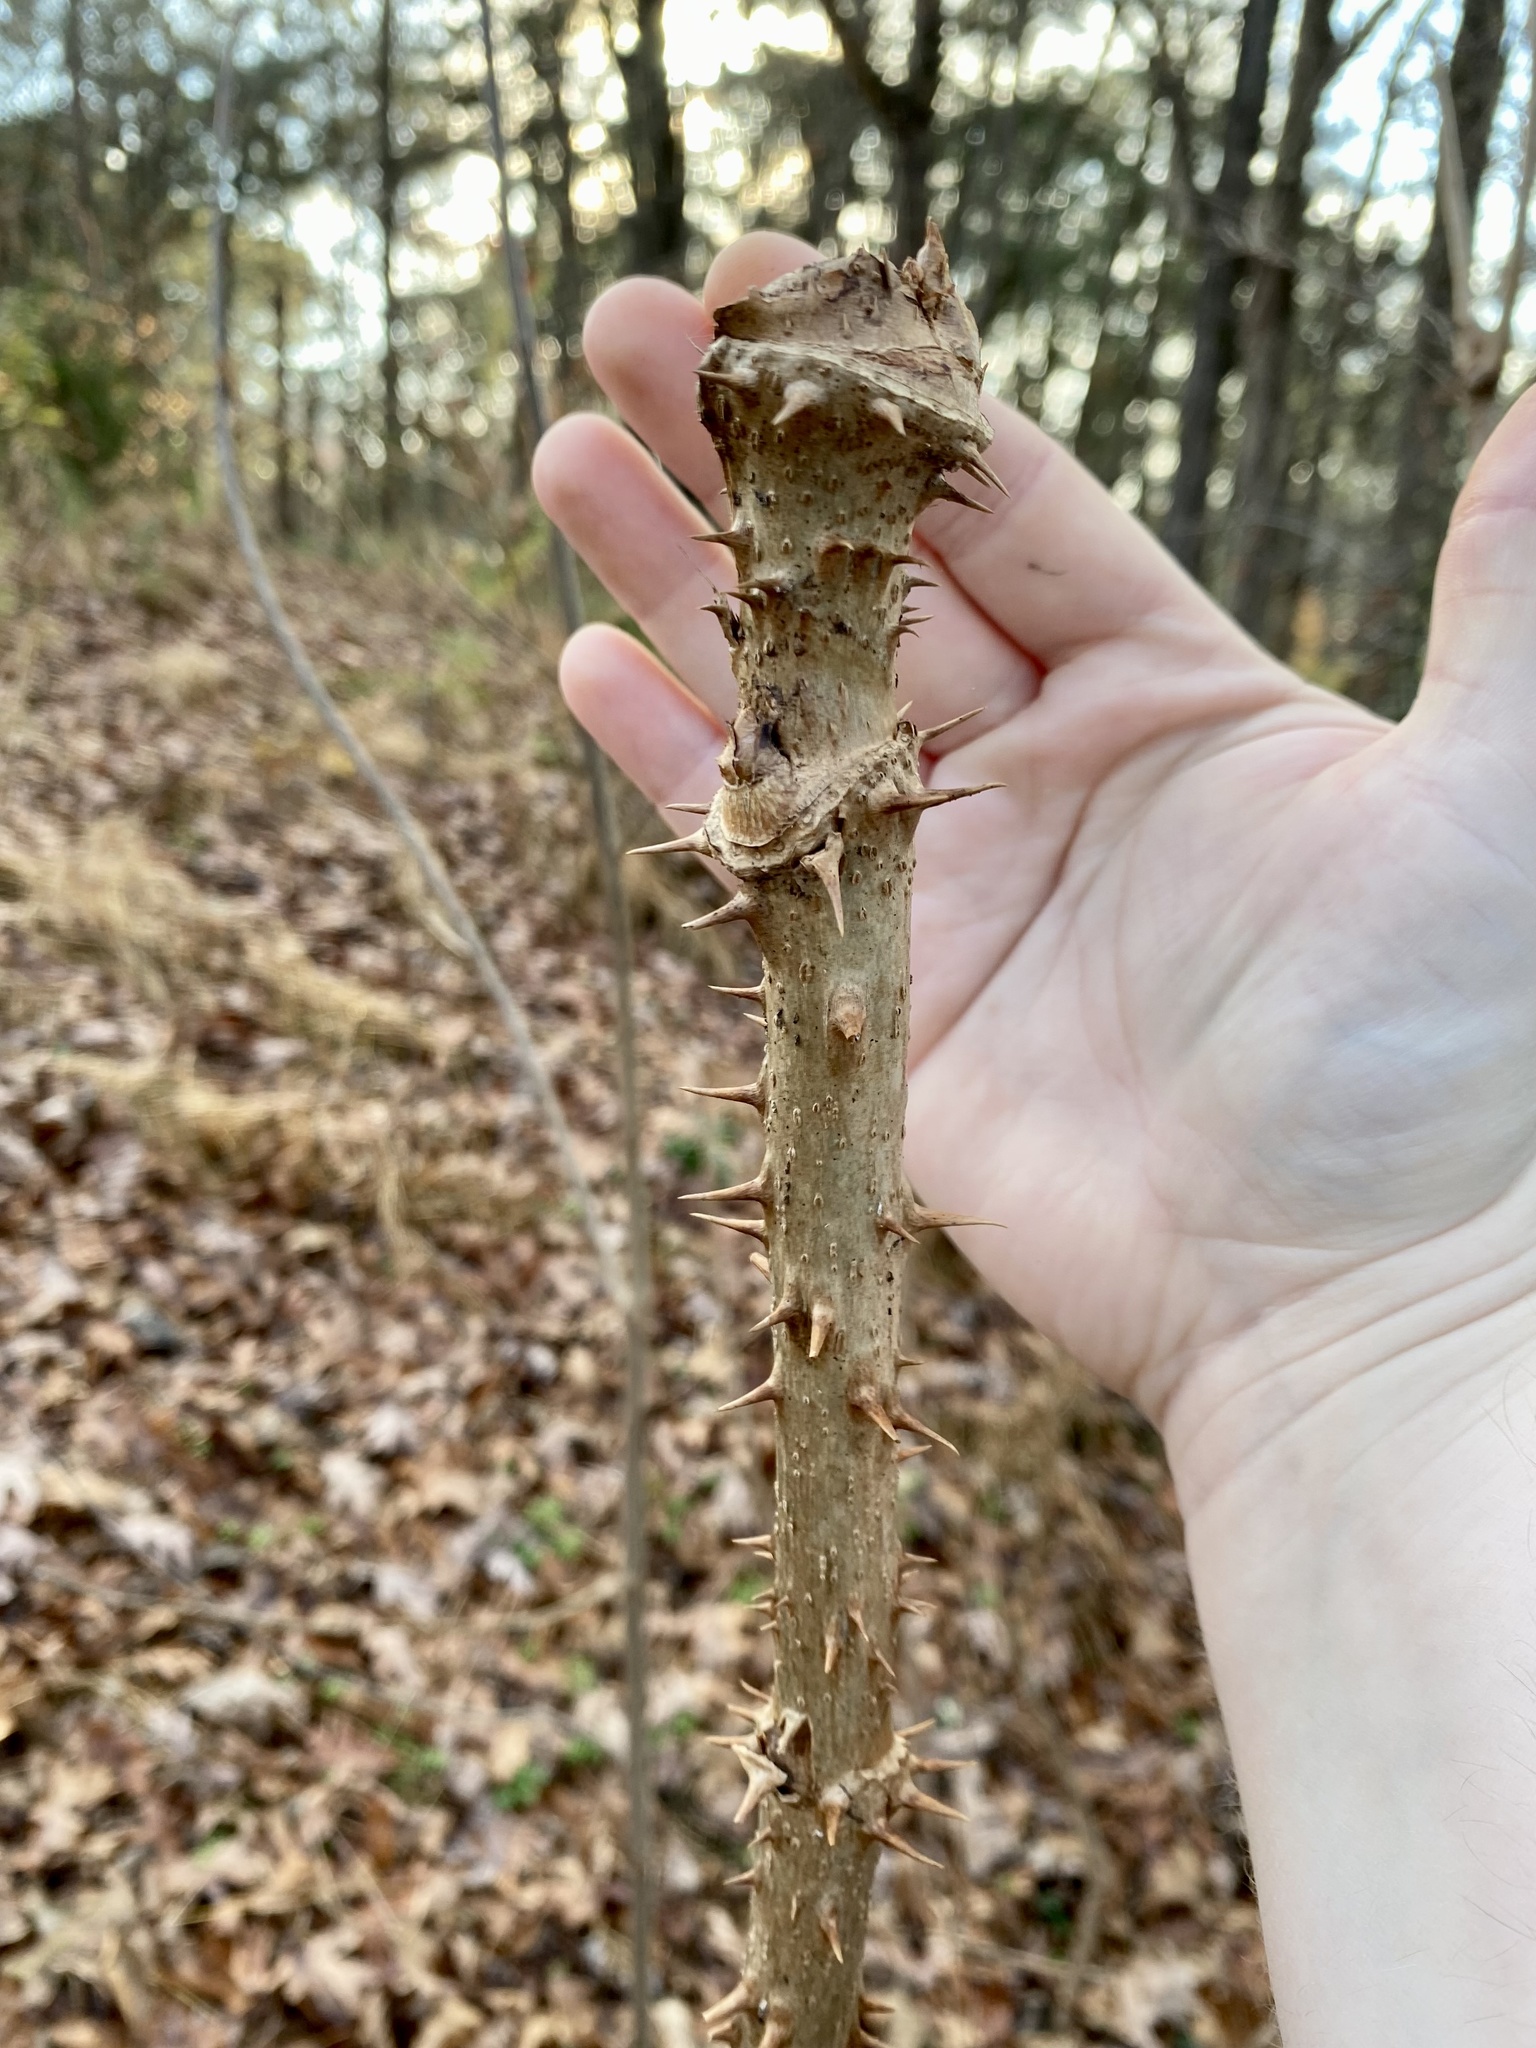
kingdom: Plantae
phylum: Tracheophyta
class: Magnoliopsida
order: Apiales
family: Araliaceae
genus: Aralia
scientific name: Aralia spinosa
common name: Hercules'-club
